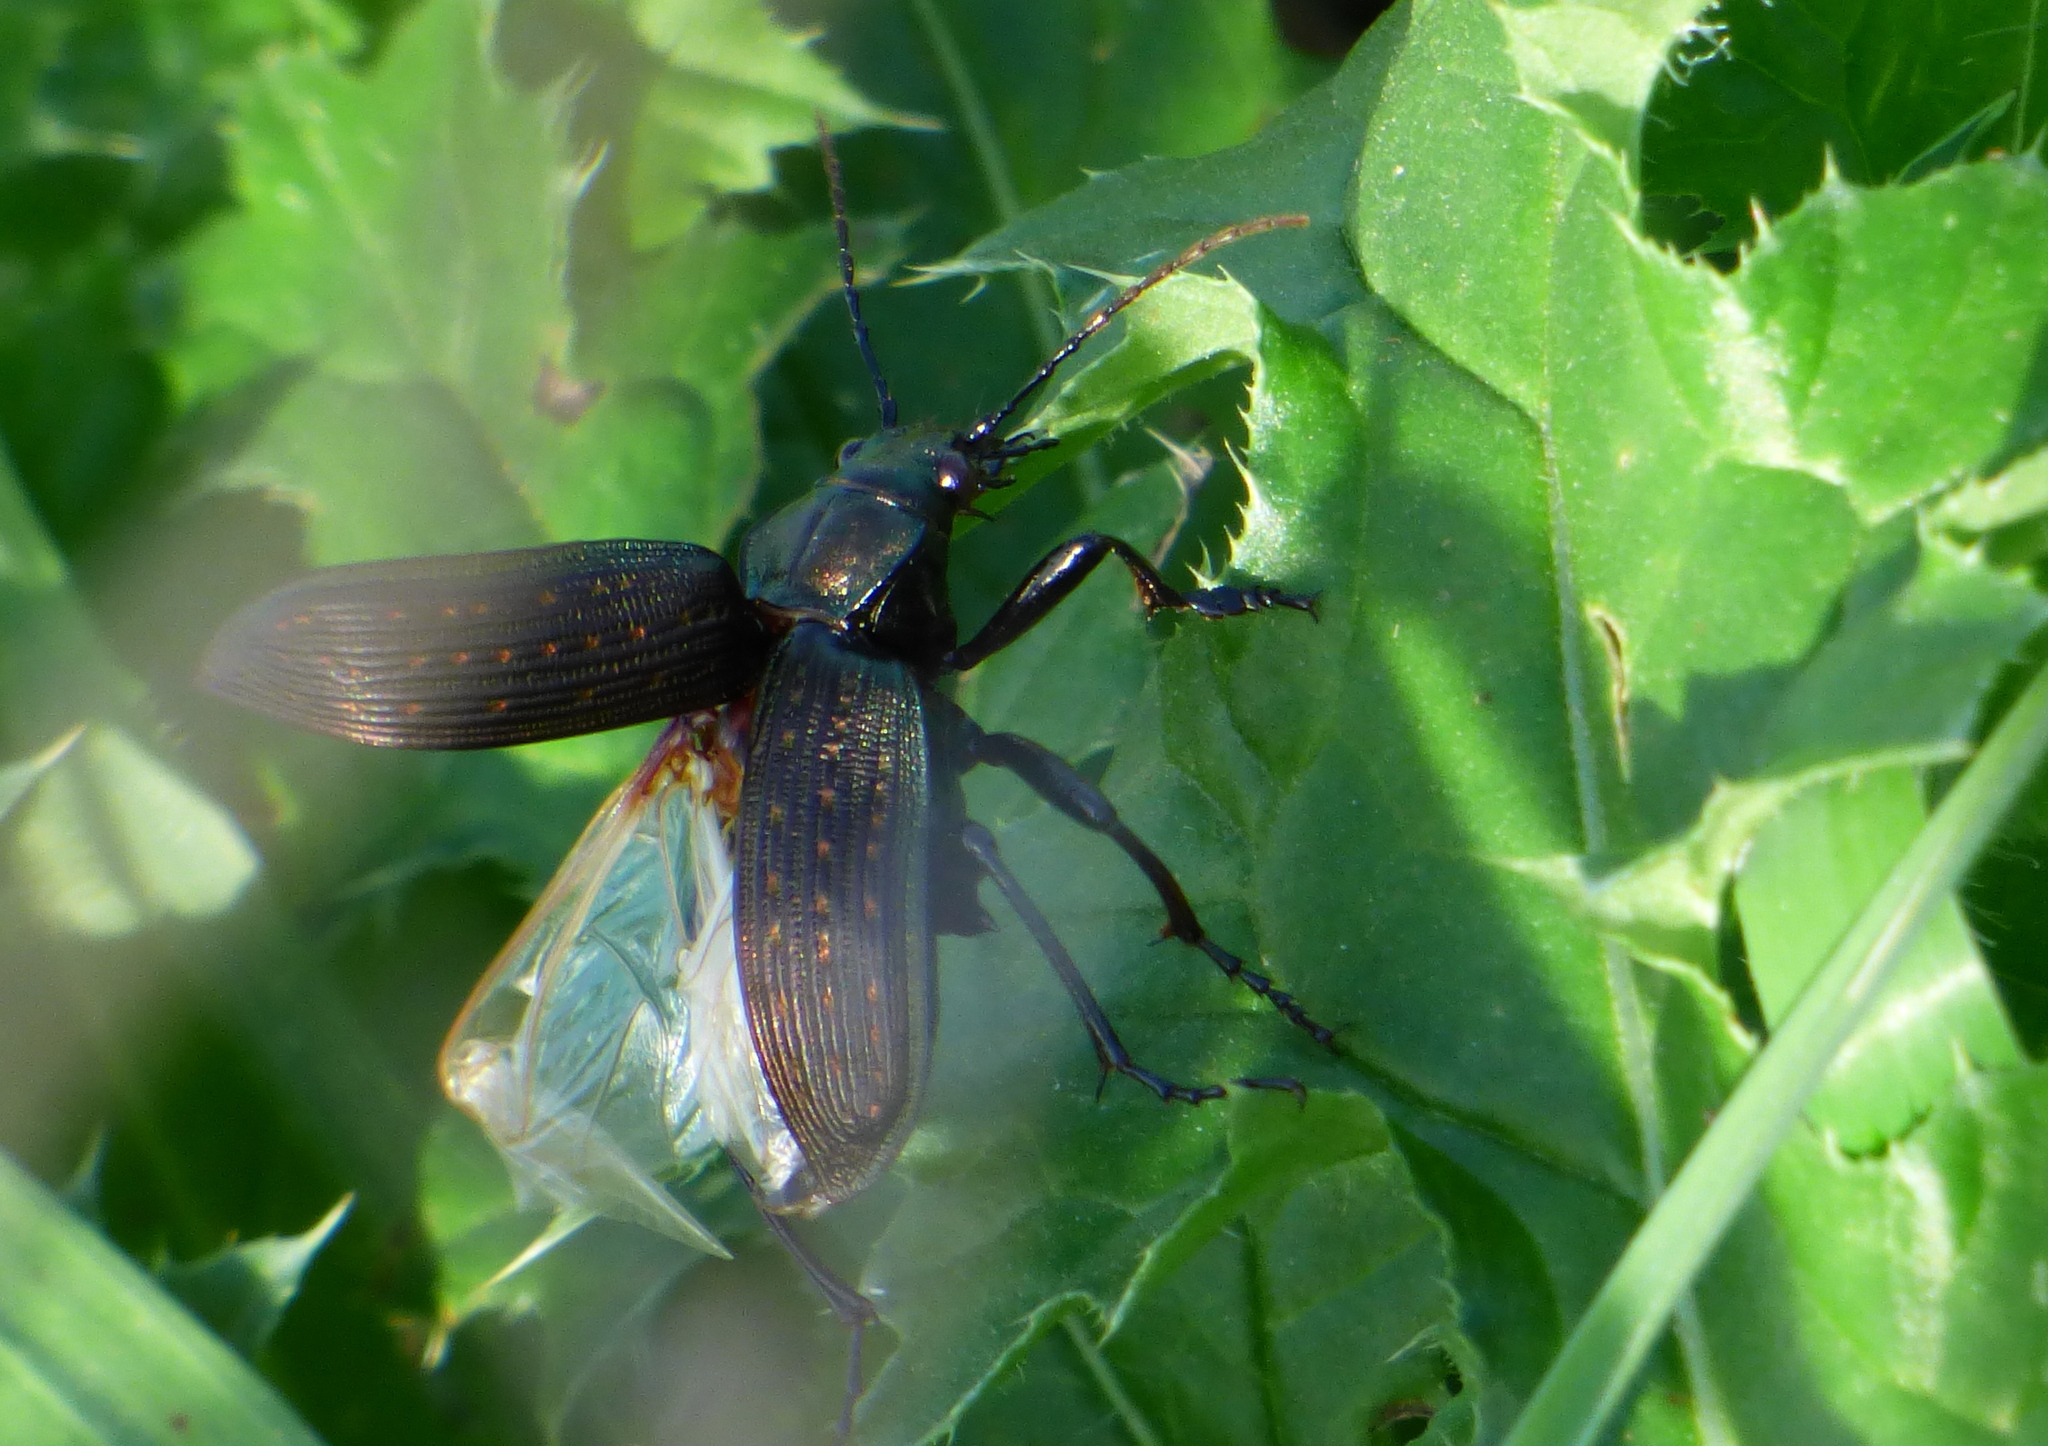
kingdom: Animalia
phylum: Arthropoda
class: Insecta
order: Coleoptera
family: Carabidae
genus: Calosoma
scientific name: Calosoma alternans
